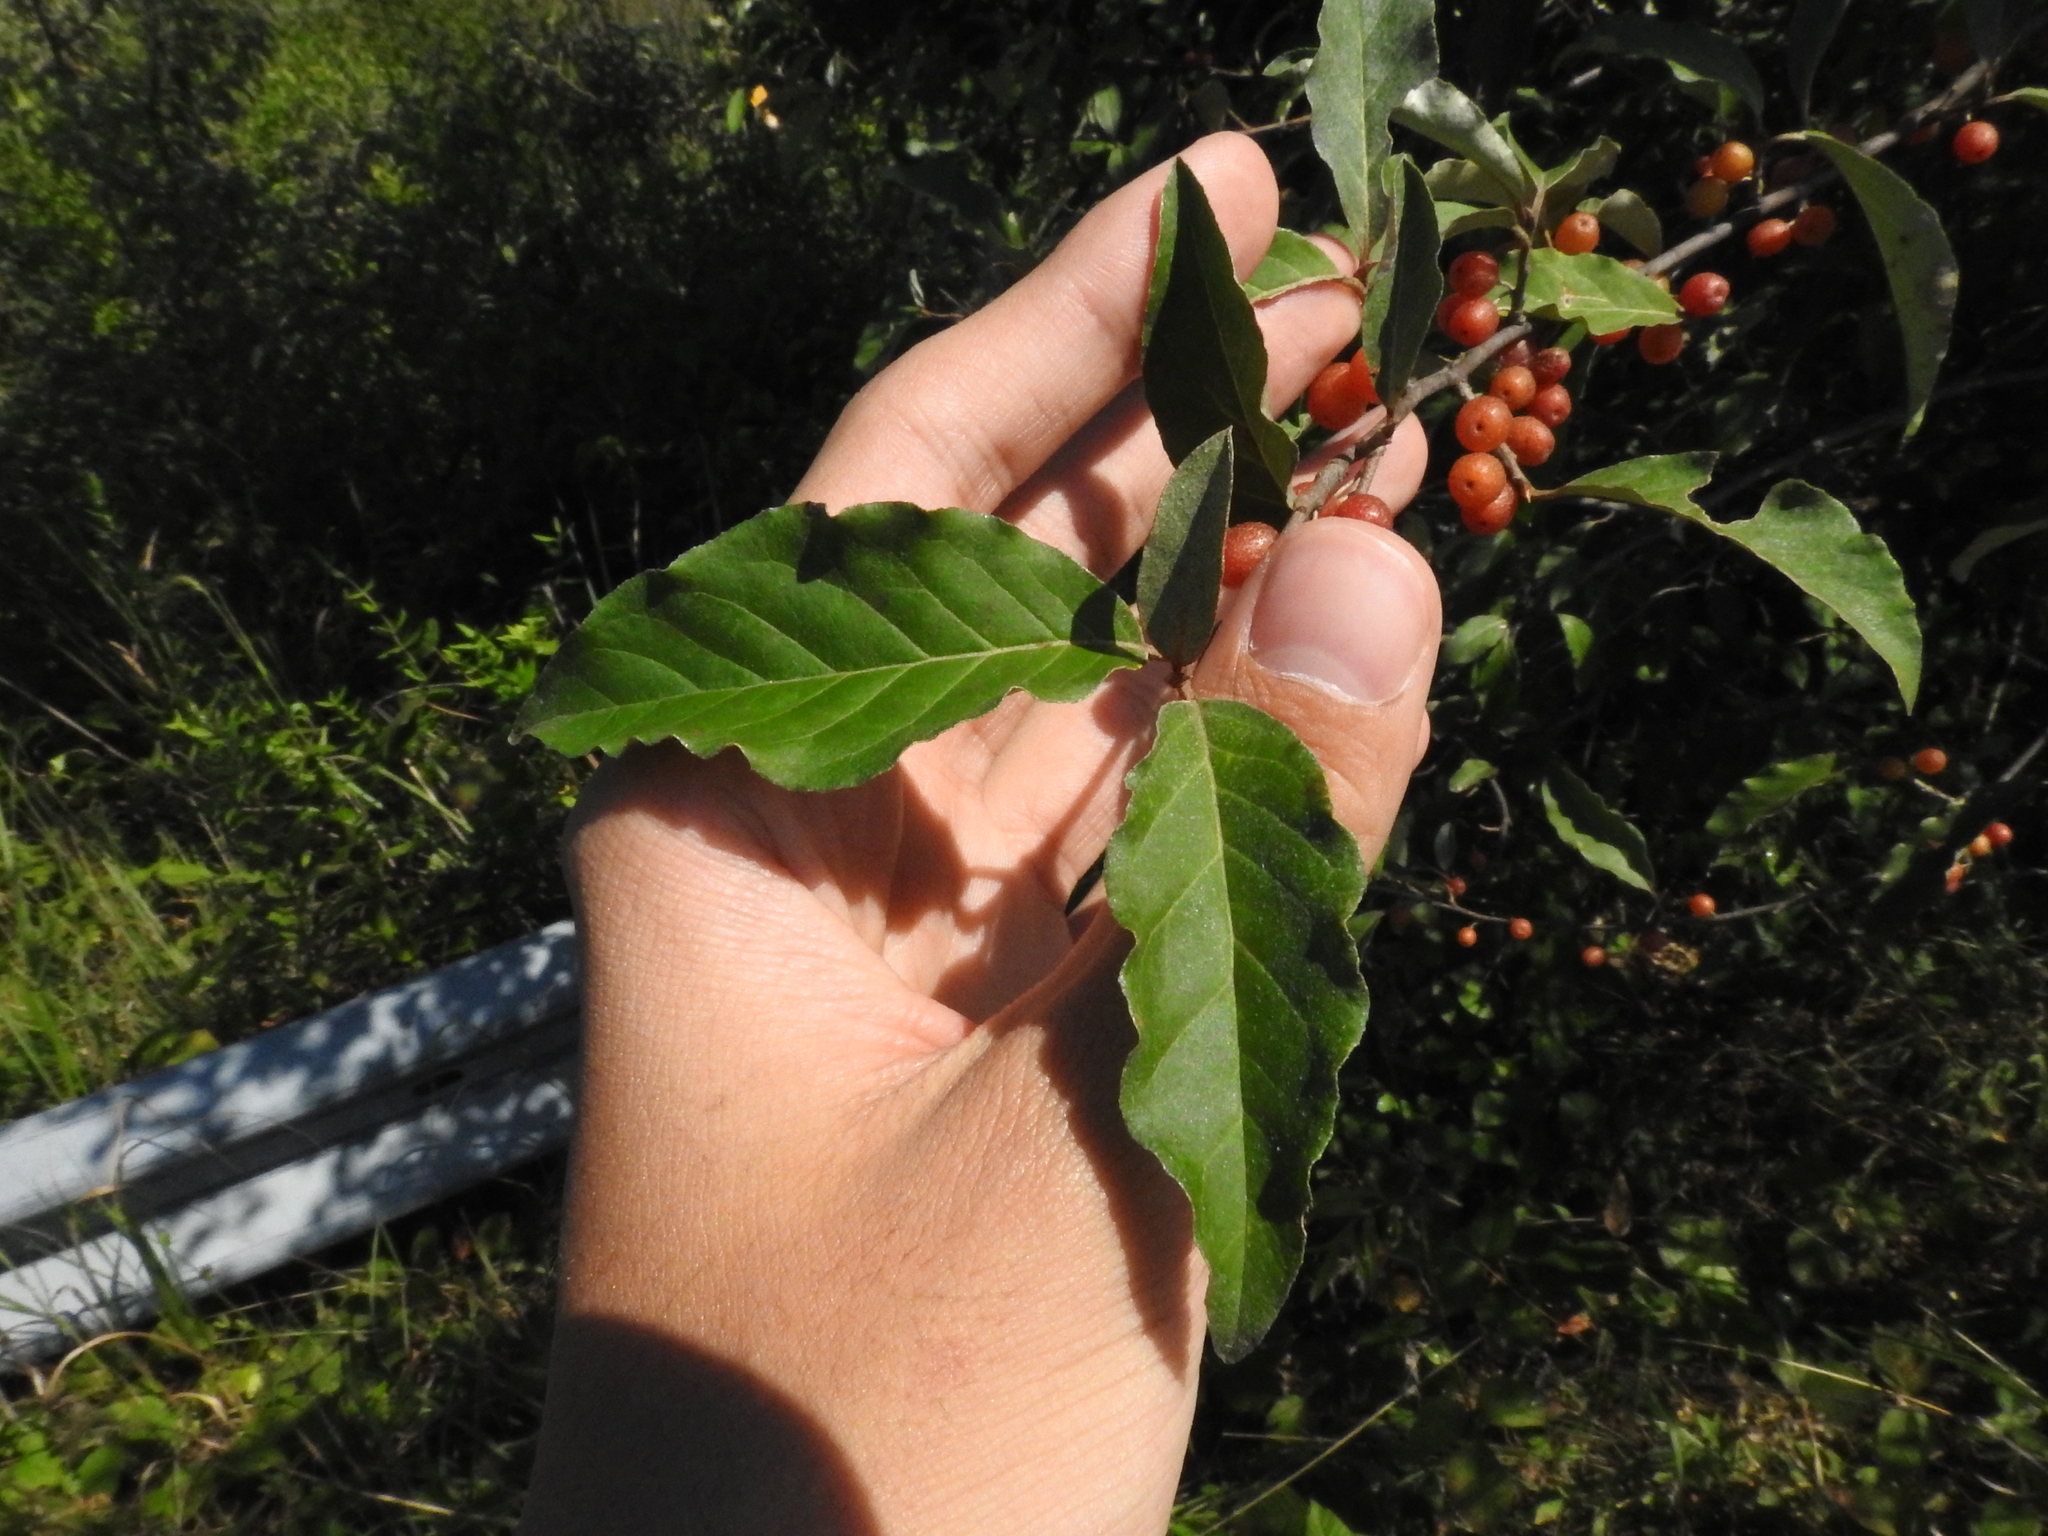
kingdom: Plantae
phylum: Tracheophyta
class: Magnoliopsida
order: Rosales
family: Elaeagnaceae
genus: Elaeagnus
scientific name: Elaeagnus umbellata
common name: Autumn olive
